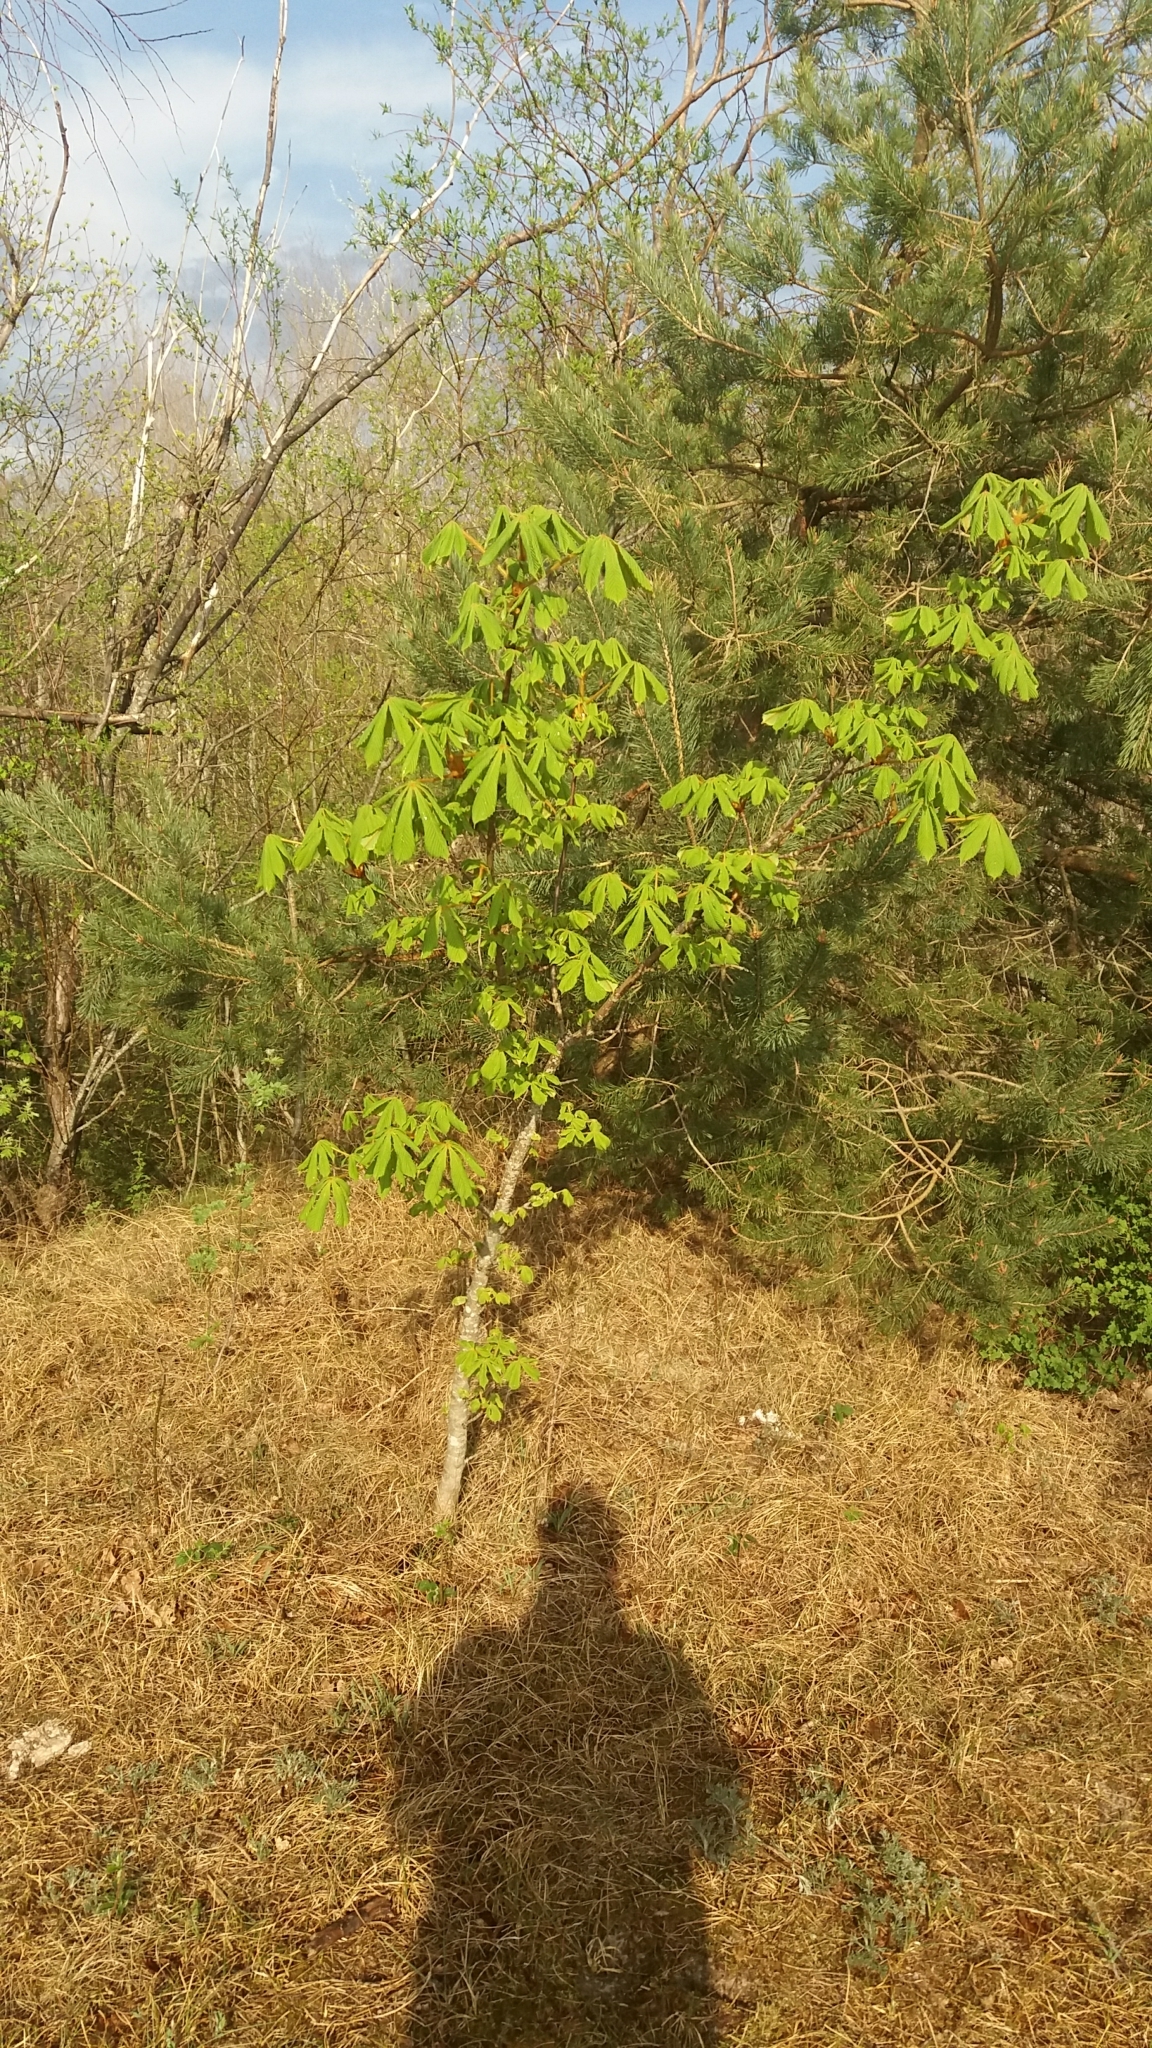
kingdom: Plantae
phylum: Tracheophyta
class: Magnoliopsida
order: Sapindales
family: Sapindaceae
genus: Aesculus
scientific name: Aesculus hippocastanum
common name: Horse-chestnut
